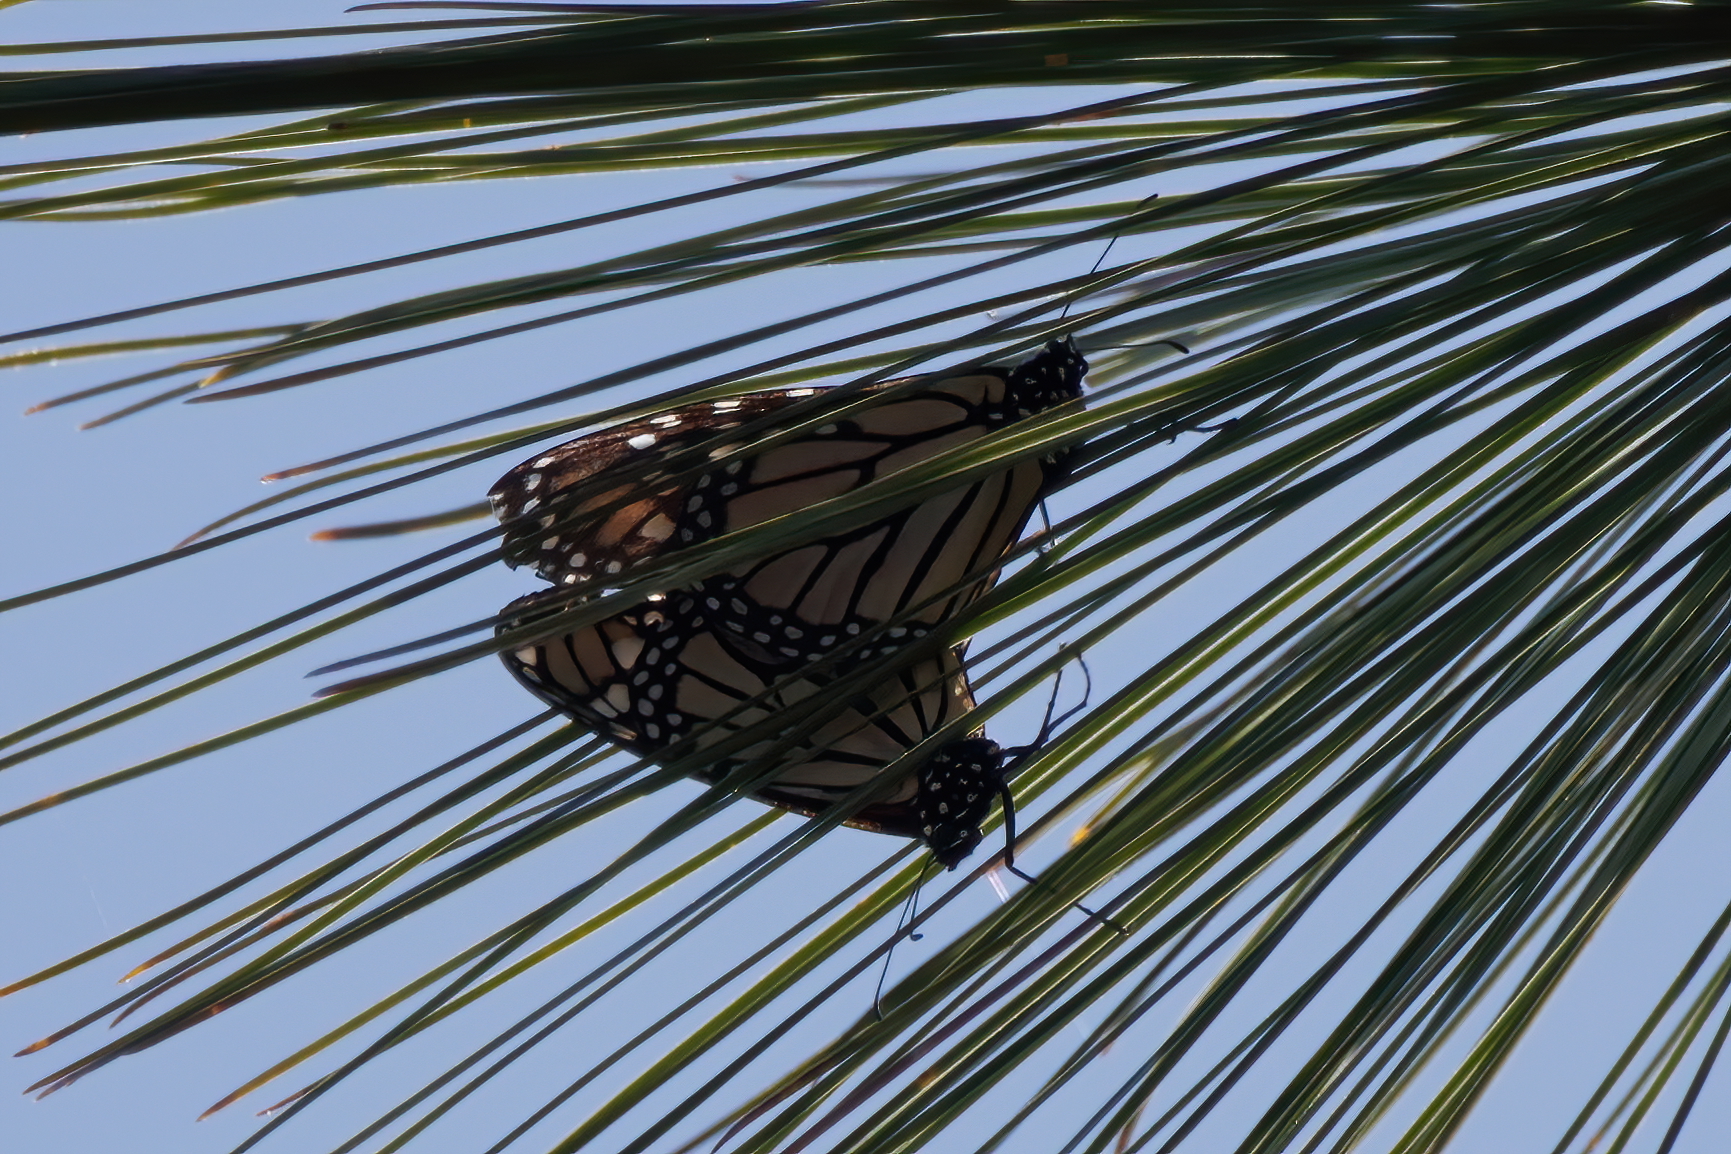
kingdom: Animalia
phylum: Arthropoda
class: Insecta
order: Lepidoptera
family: Nymphalidae
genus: Danaus
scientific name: Danaus plexippus
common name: Monarch
